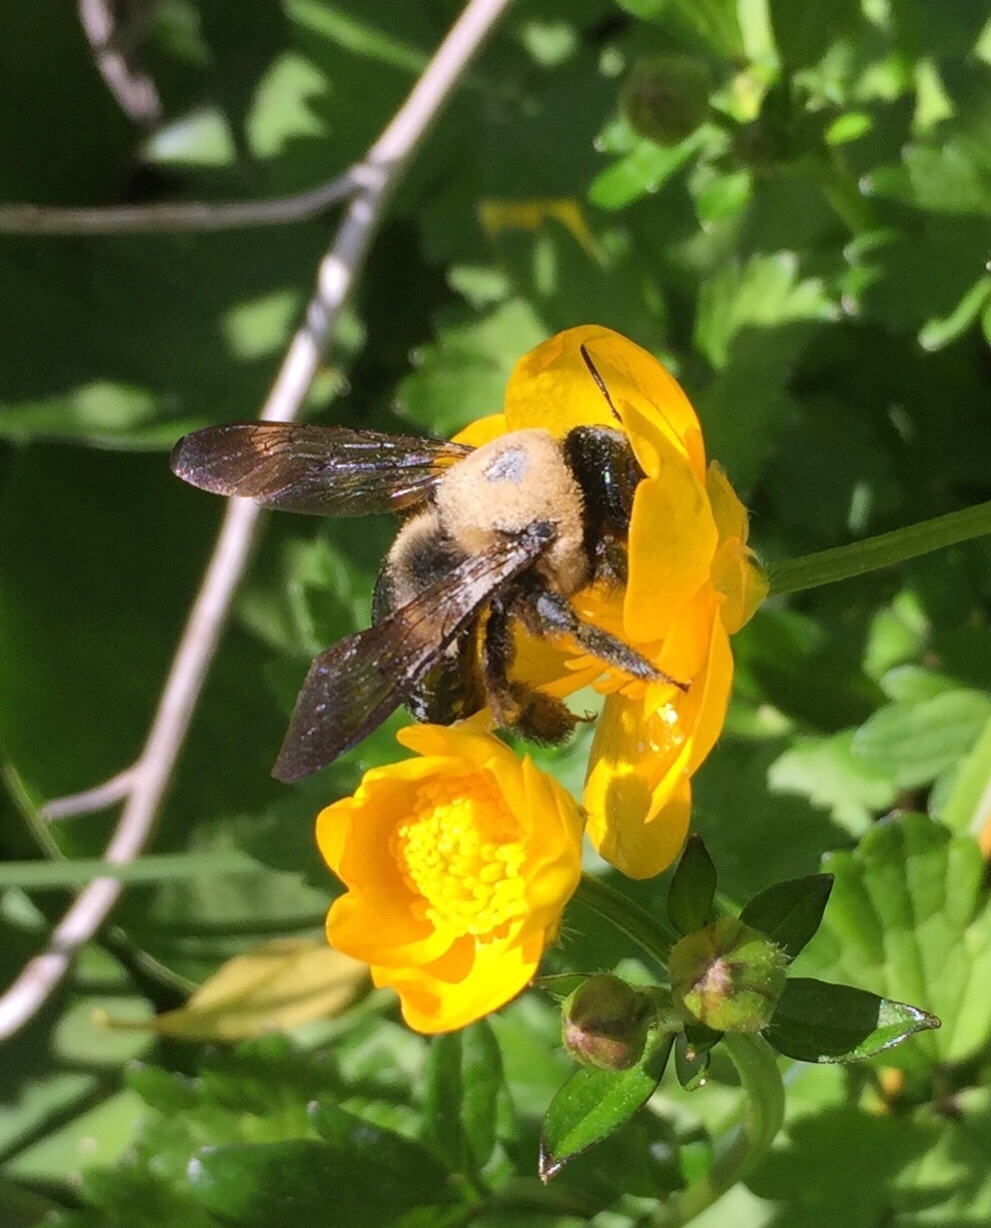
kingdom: Animalia
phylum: Arthropoda
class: Insecta
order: Hymenoptera
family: Apidae
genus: Xylocopa
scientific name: Xylocopa virginica
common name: Carpenter bee
